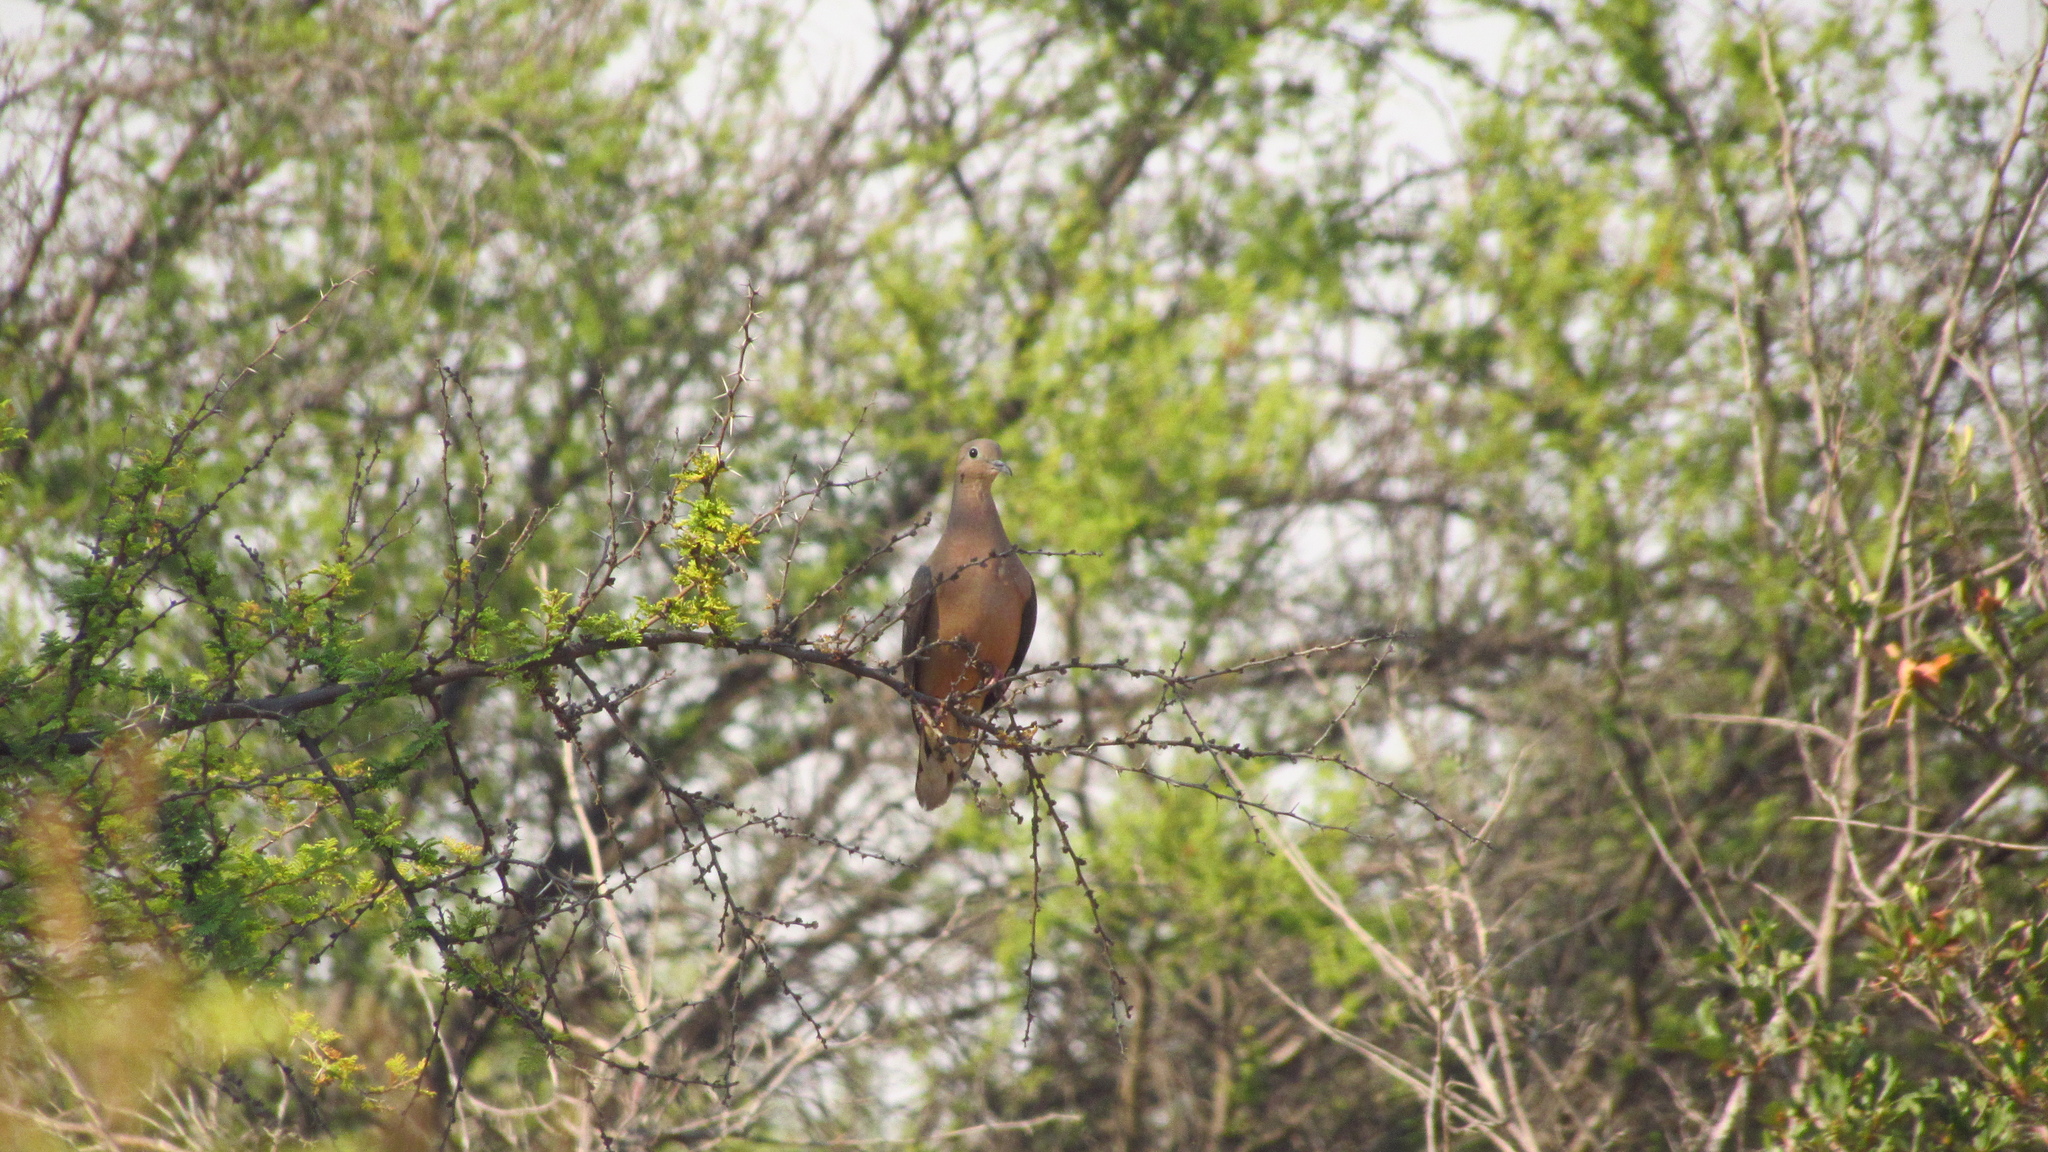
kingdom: Animalia
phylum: Chordata
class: Aves
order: Columbiformes
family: Columbidae
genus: Zenaida
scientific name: Zenaida auriculata
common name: Eared dove
